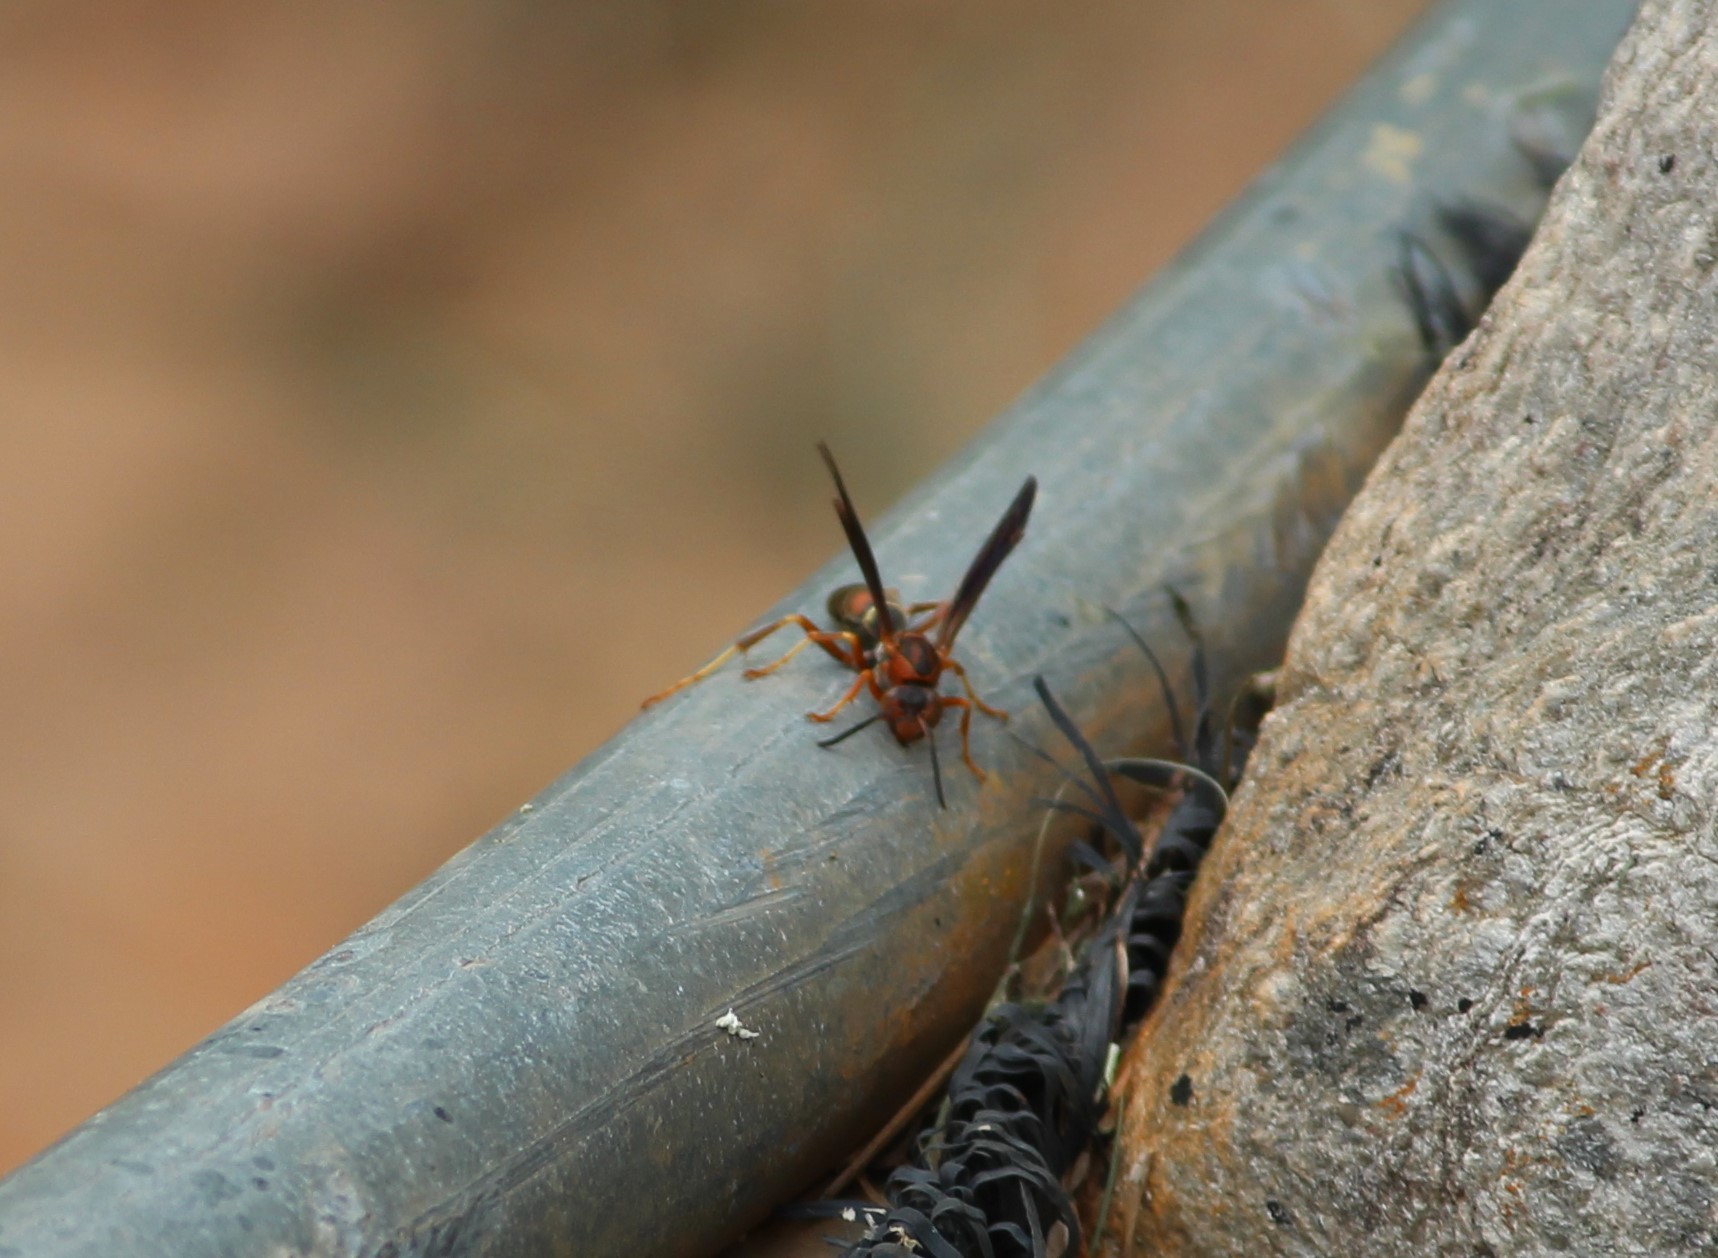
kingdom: Animalia
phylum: Arthropoda
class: Insecta
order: Hymenoptera
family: Eumenidae
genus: Polistes
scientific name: Polistes fuscatus
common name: Dark paper wasp
